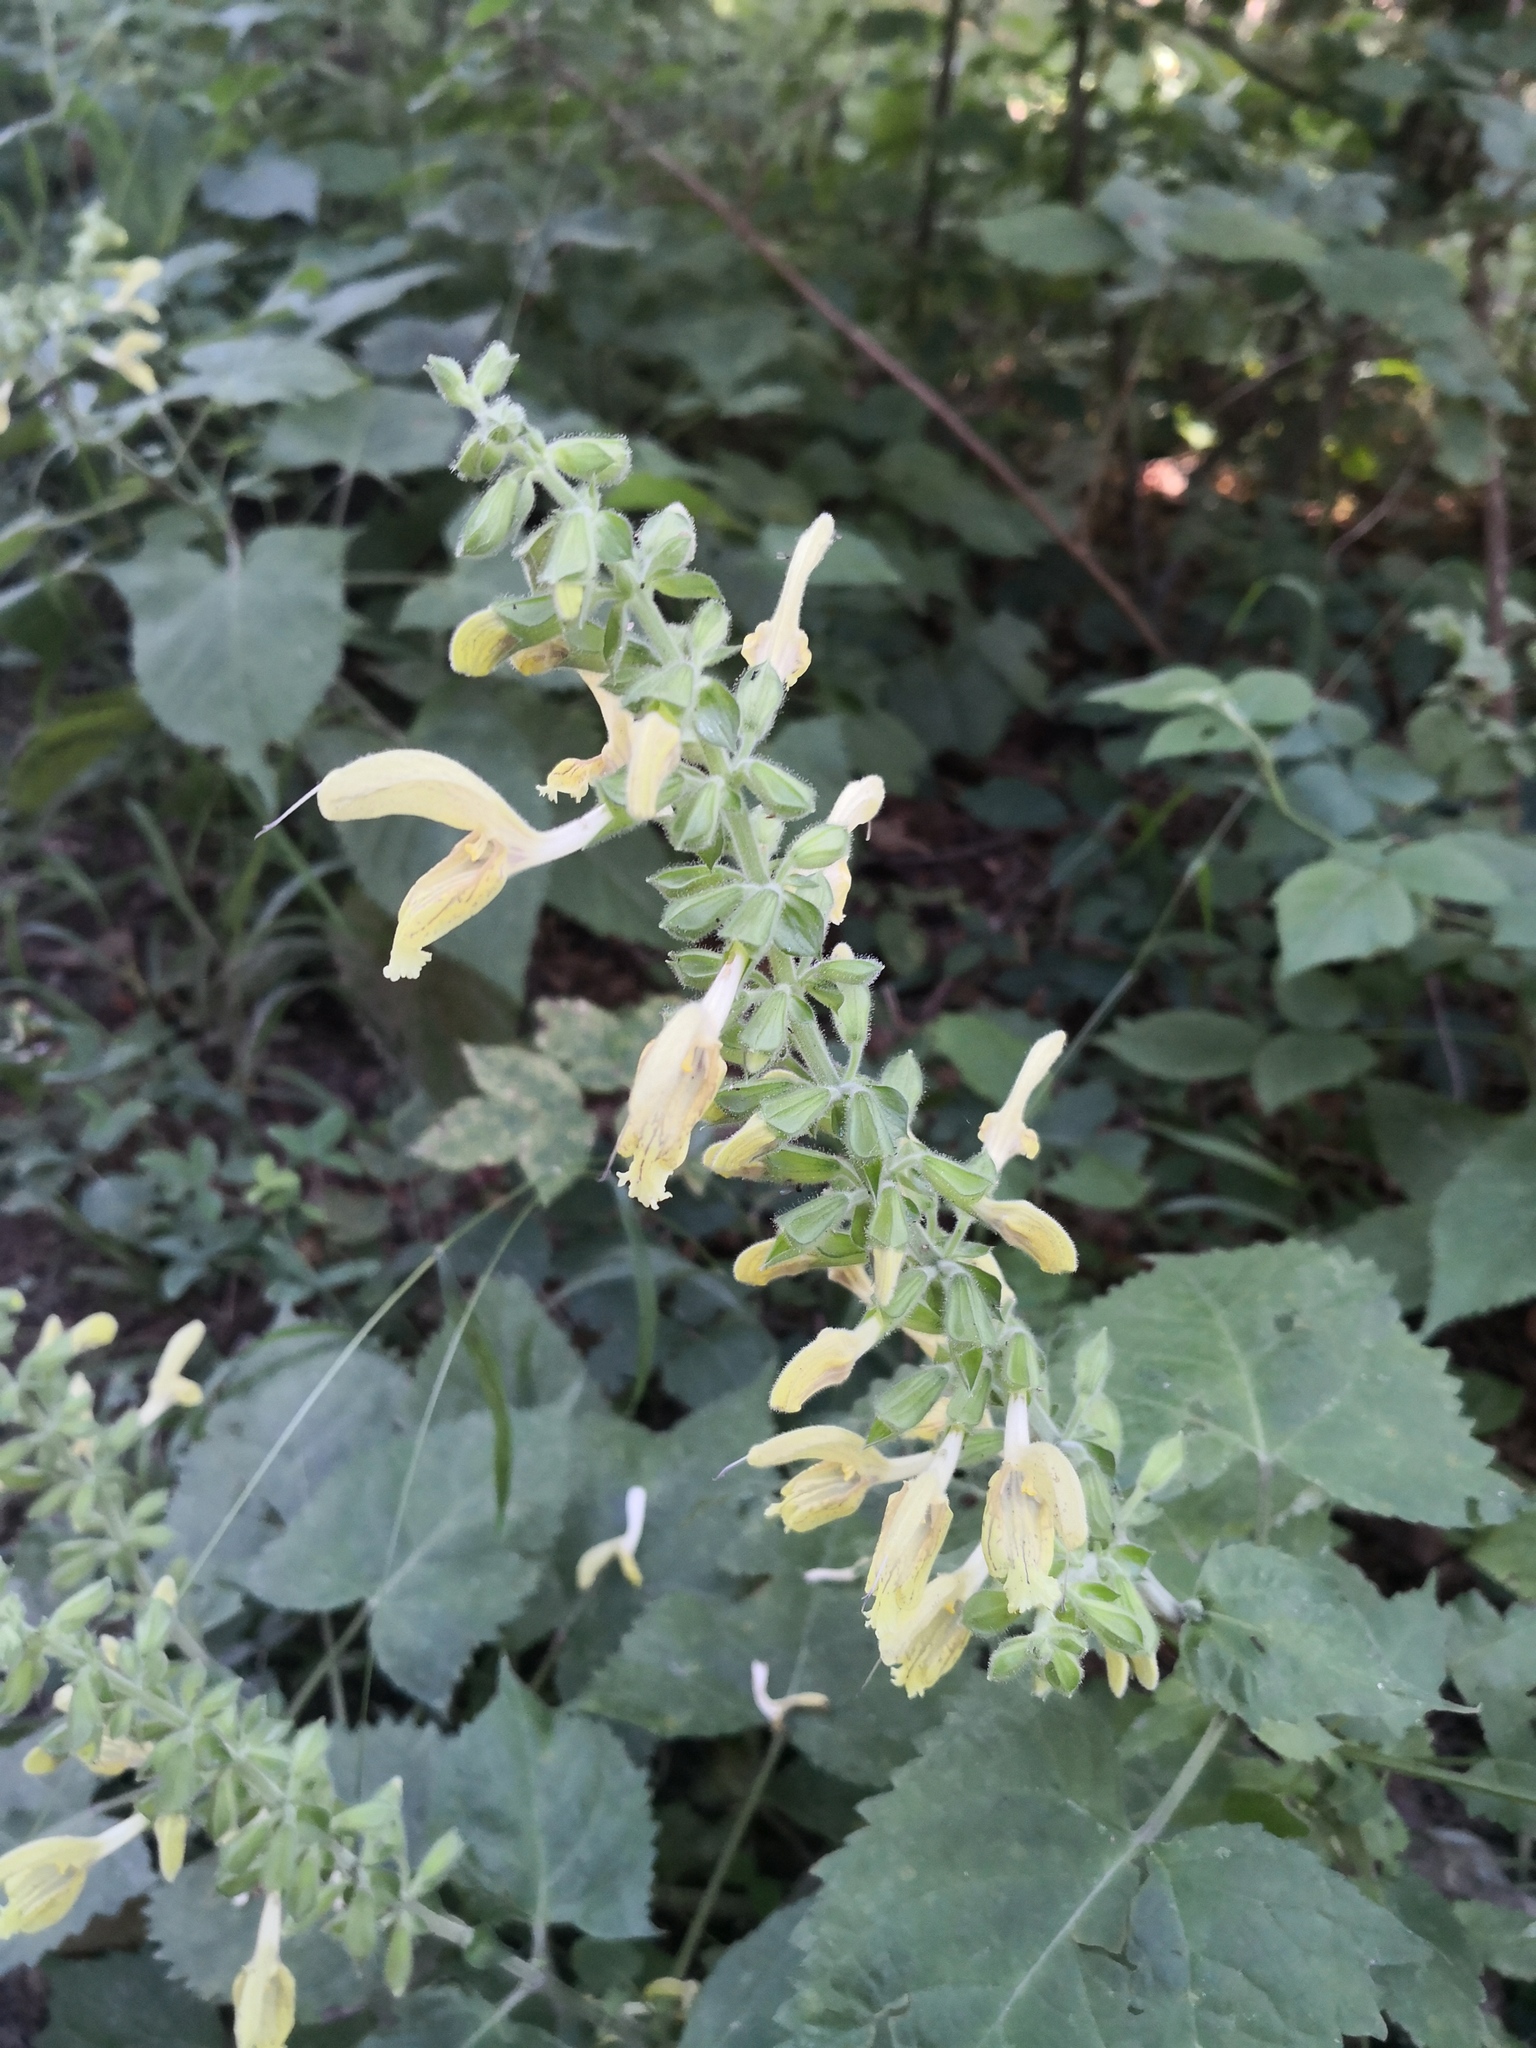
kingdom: Plantae
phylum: Tracheophyta
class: Magnoliopsida
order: Lamiales
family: Lamiaceae
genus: Salvia
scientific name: Salvia glutinosa
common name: Sticky clary
